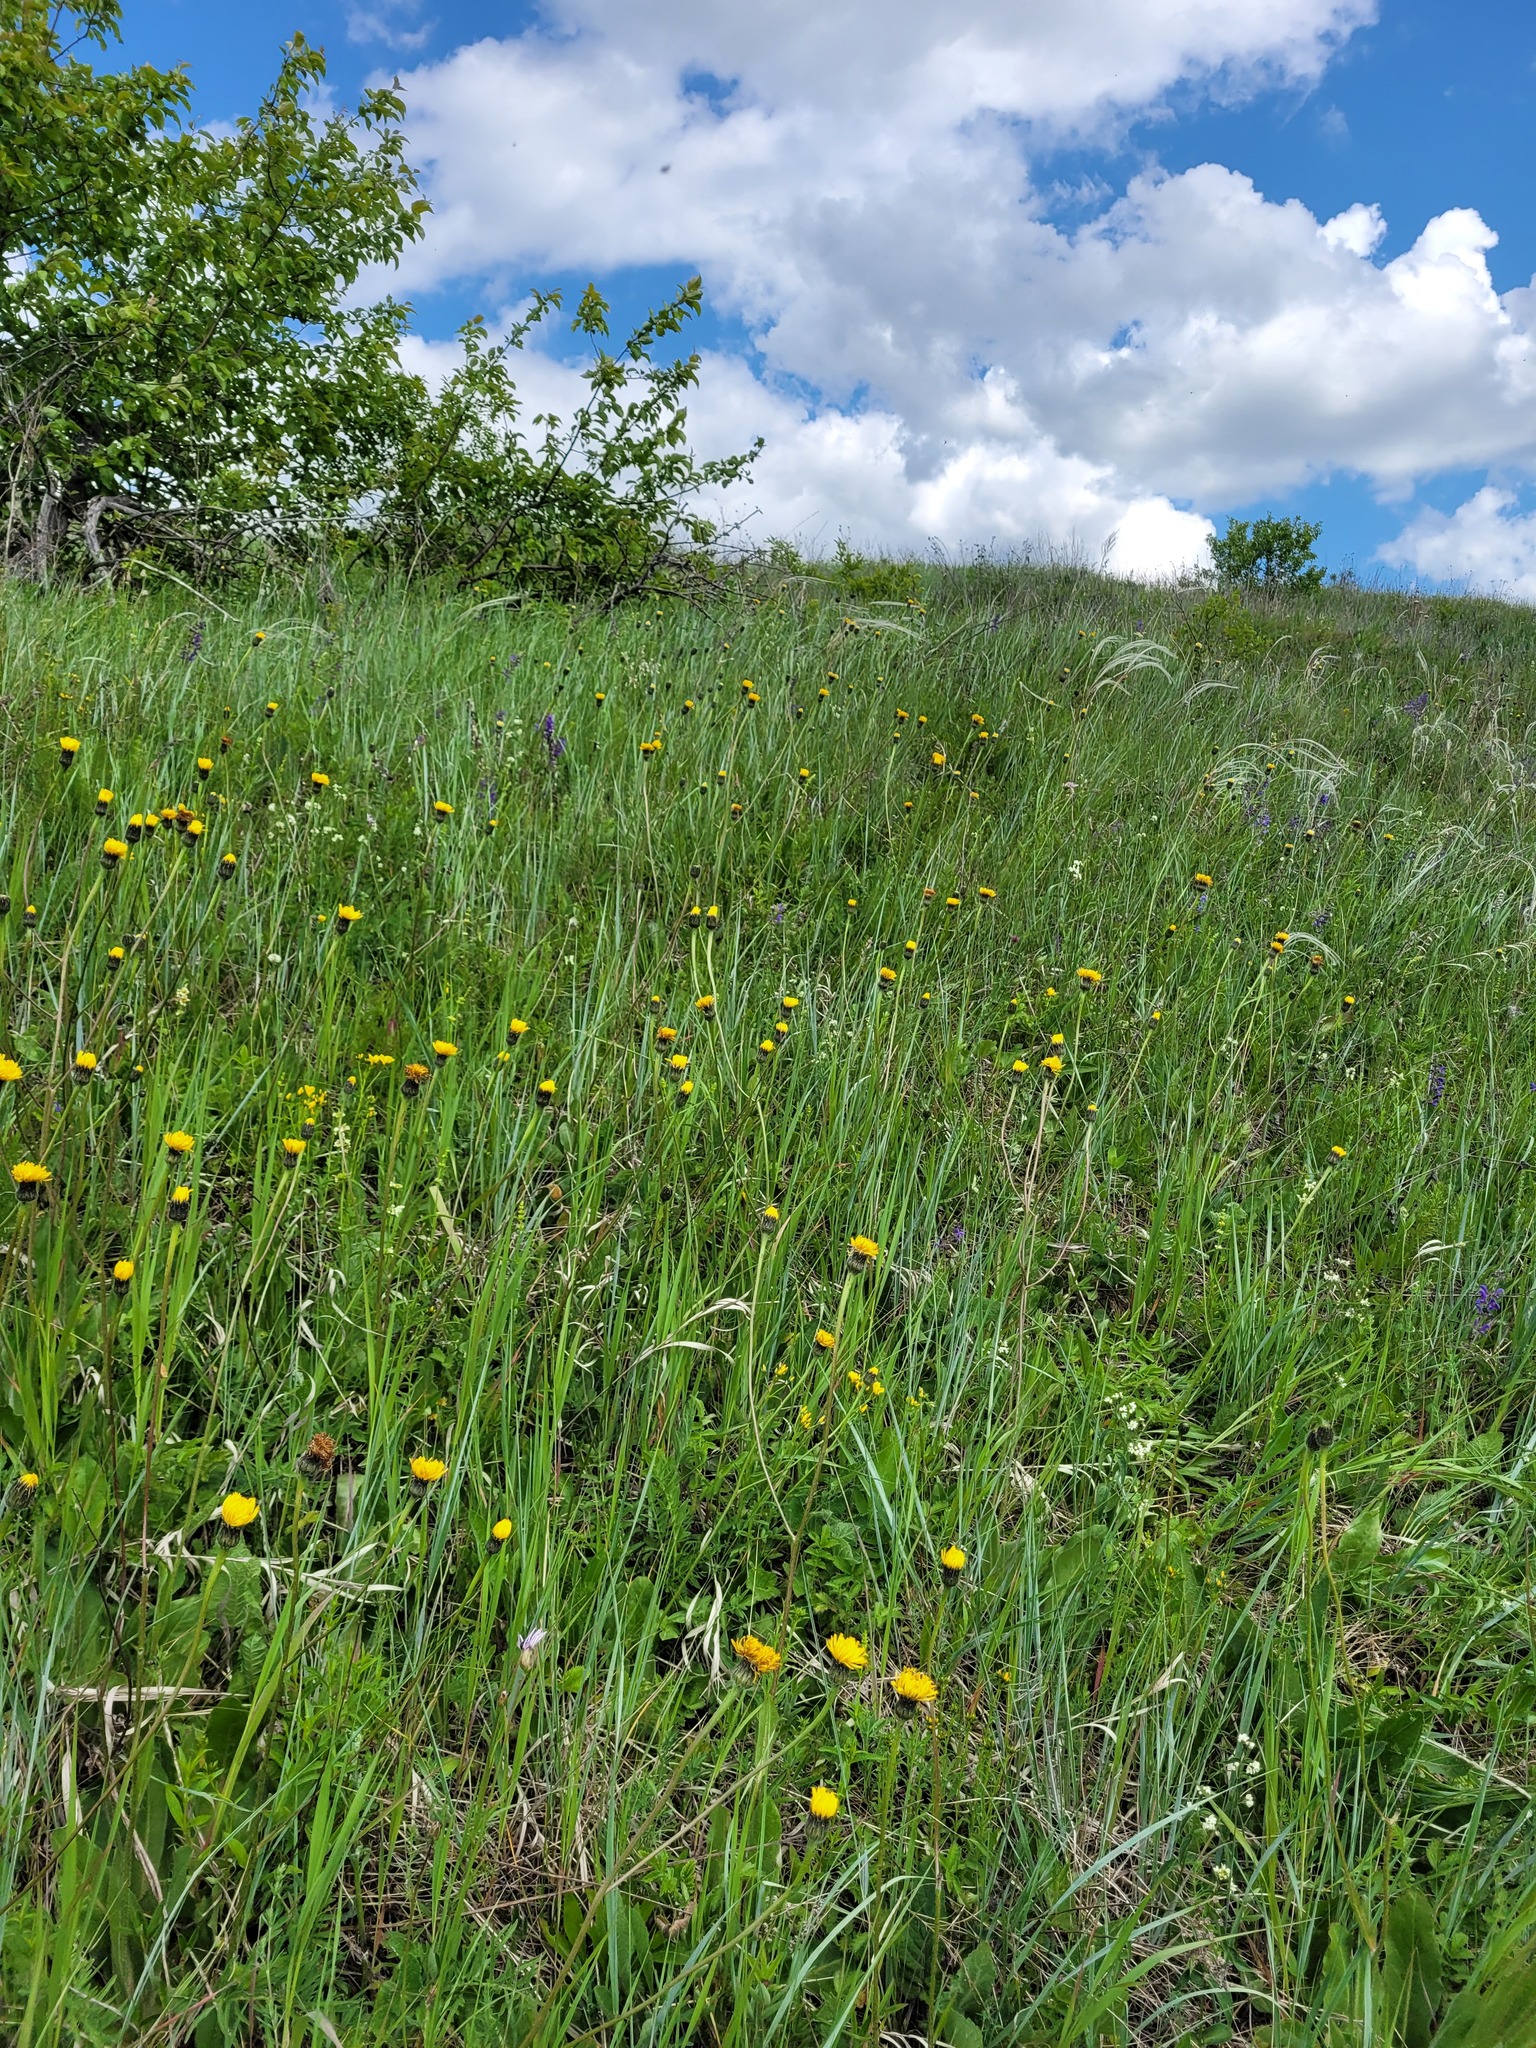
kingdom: Plantae
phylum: Tracheophyta
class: Magnoliopsida
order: Asterales
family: Asteraceae
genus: Trommsdorffia
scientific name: Trommsdorffia maculata
